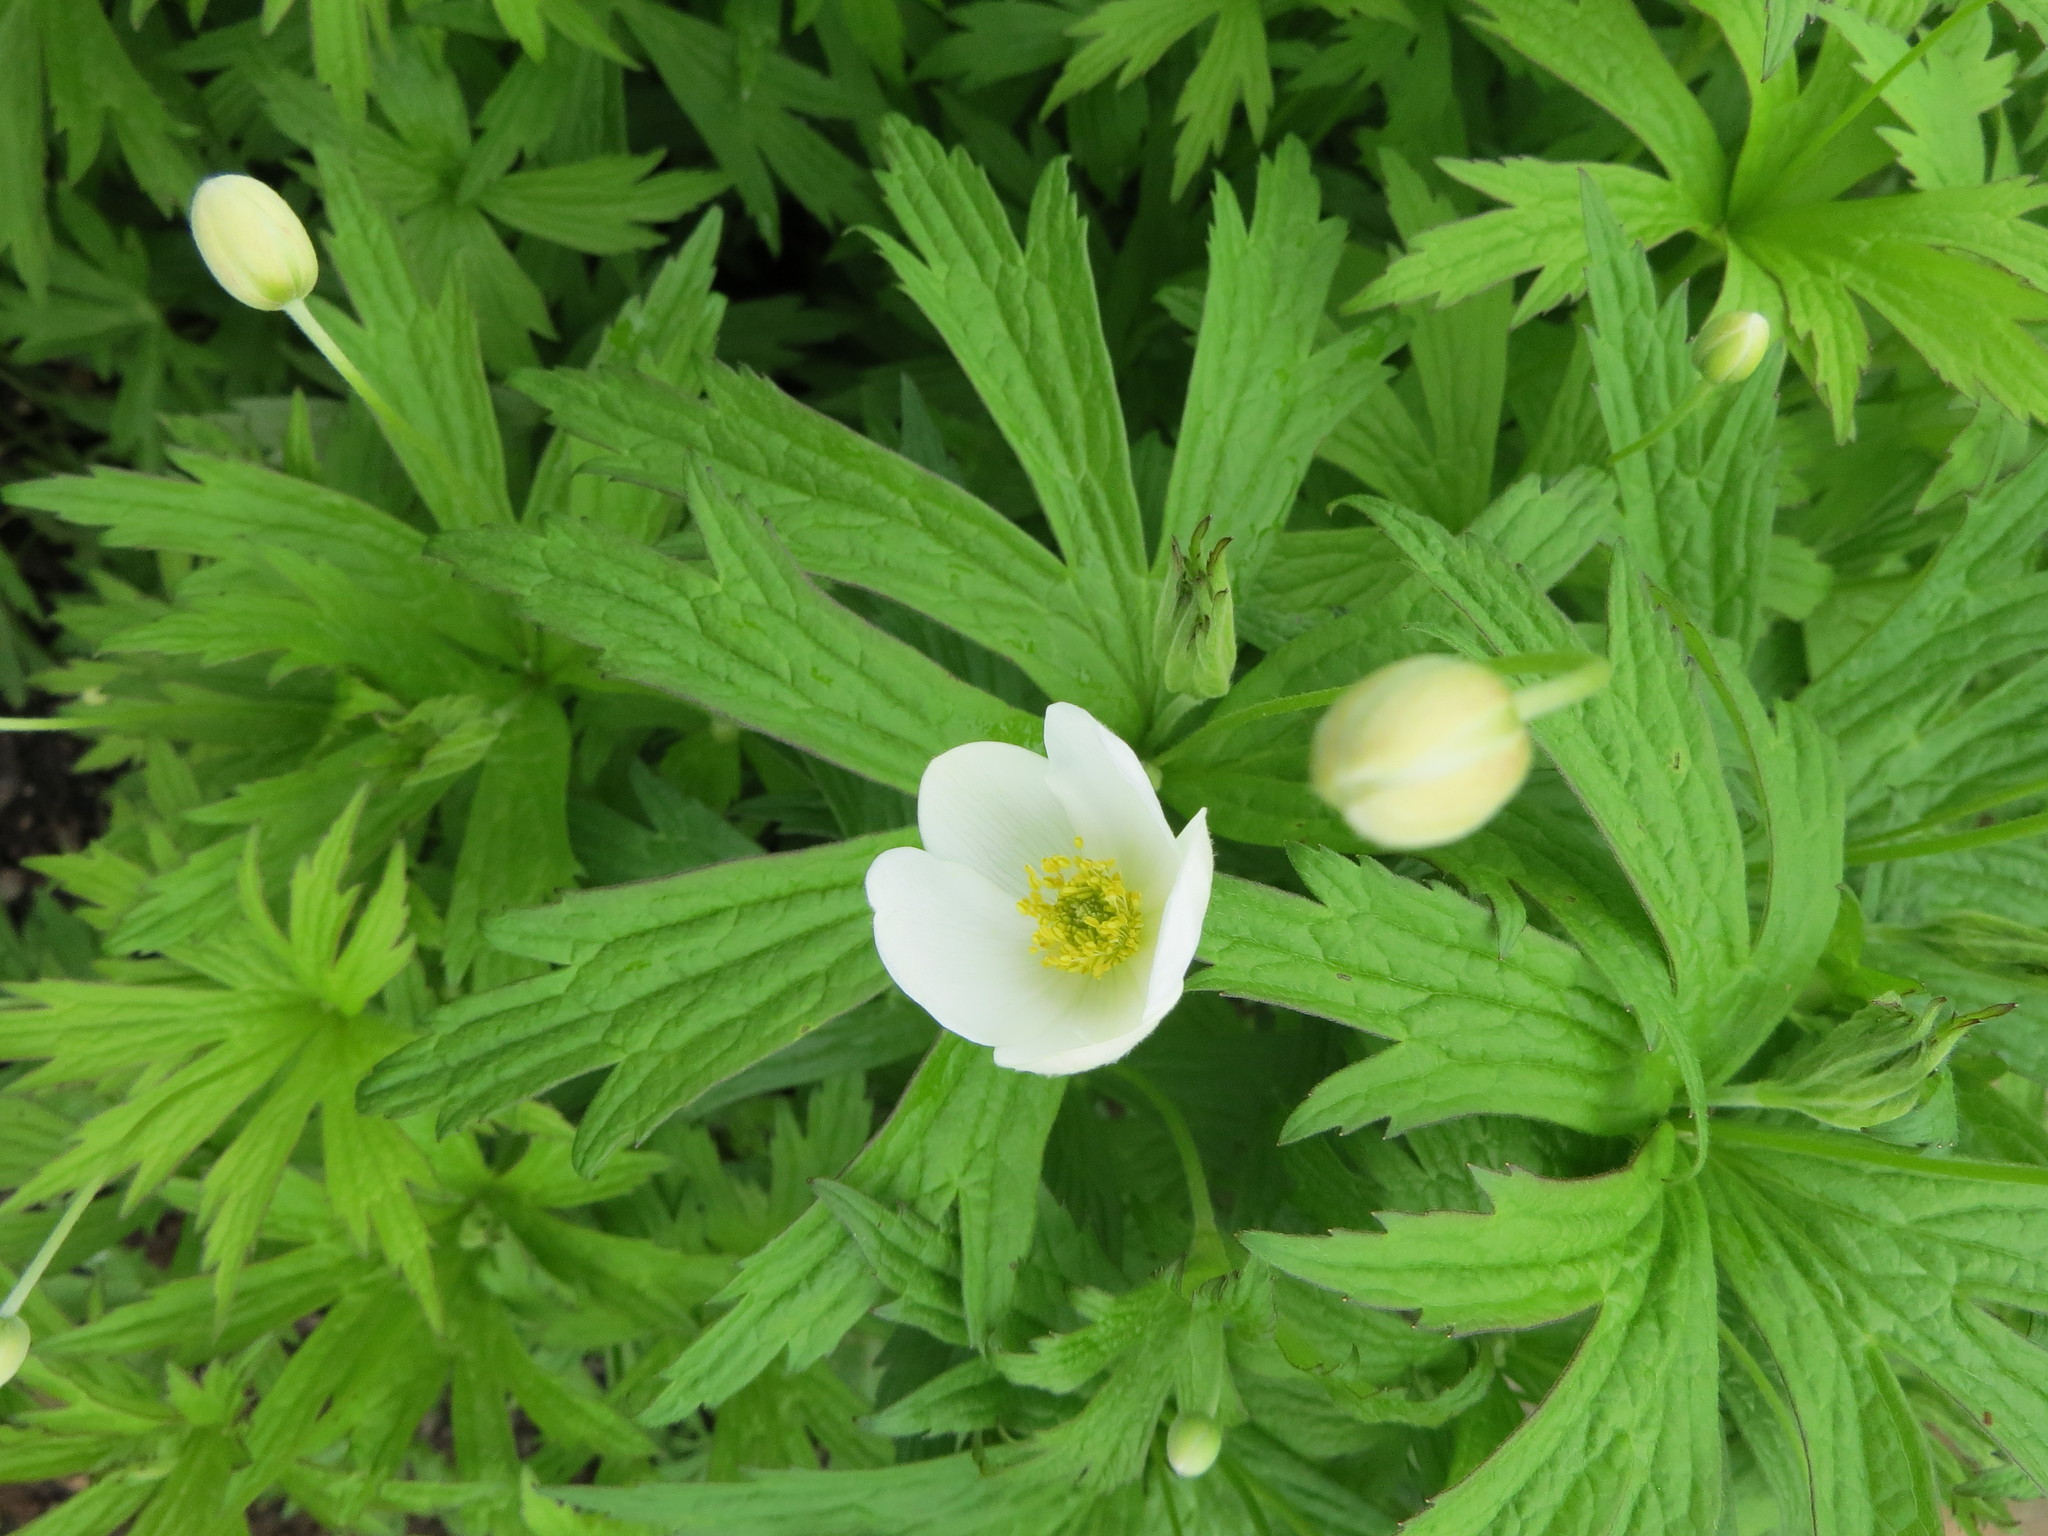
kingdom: Plantae
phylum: Tracheophyta
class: Magnoliopsida
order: Ranunculales
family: Ranunculaceae
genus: Anemonastrum
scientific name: Anemonastrum canadense
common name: Canada anemone
